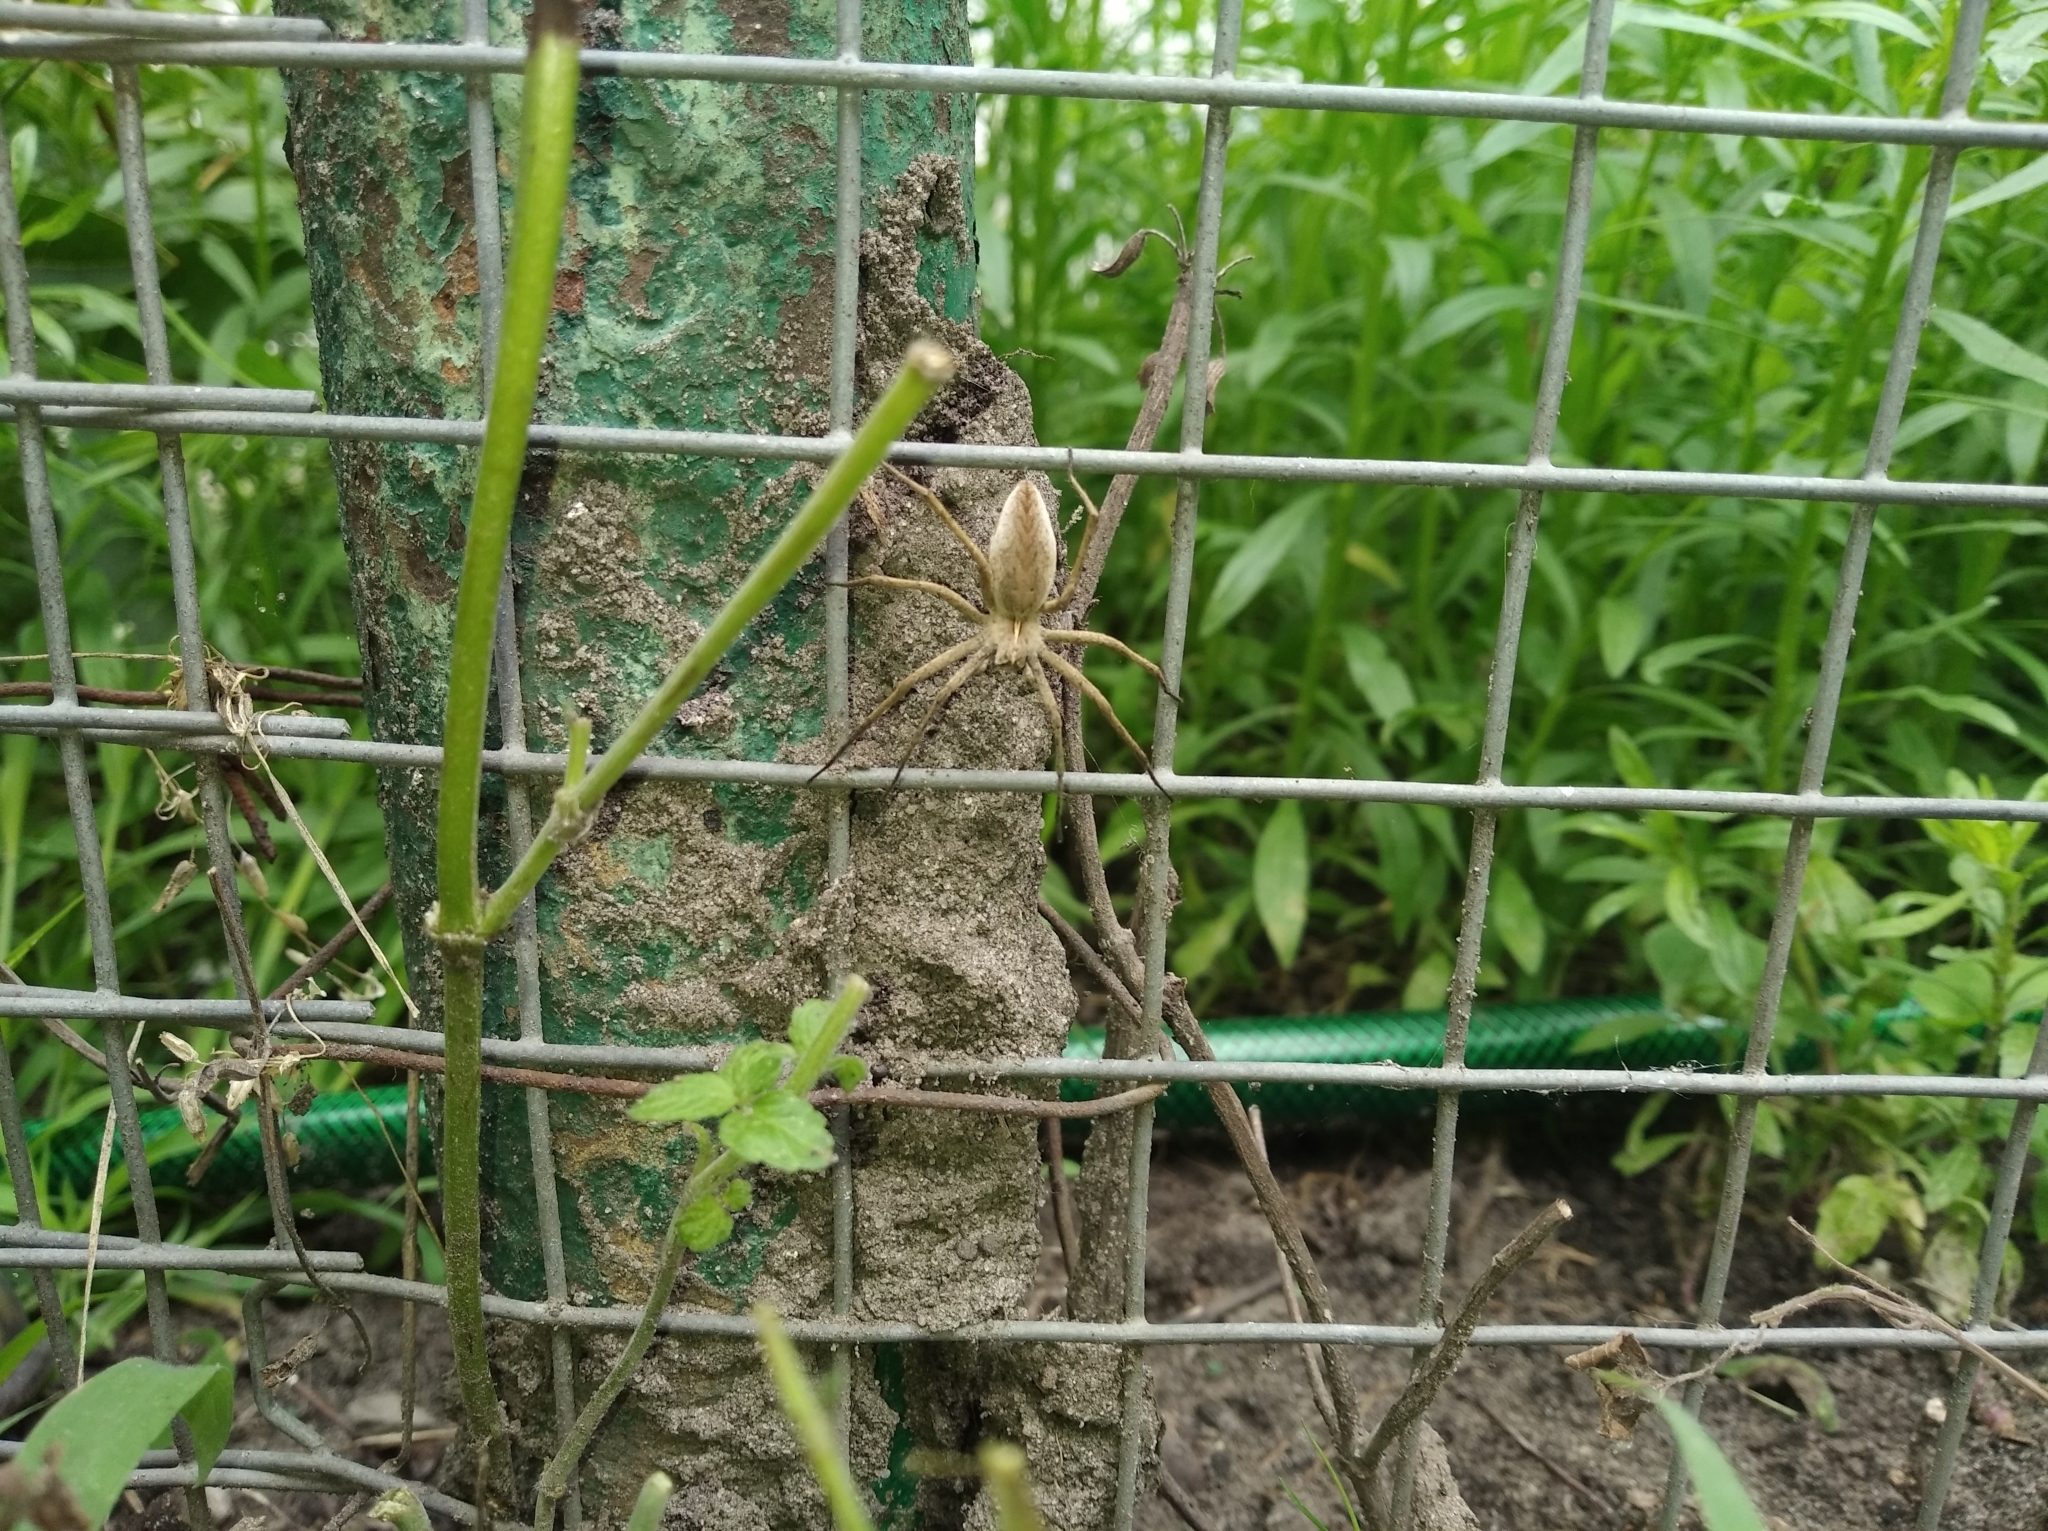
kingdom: Animalia
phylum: Arthropoda
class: Arachnida
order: Araneae
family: Pisauridae
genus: Pisaura
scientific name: Pisaura mirabilis
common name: Tent spider
